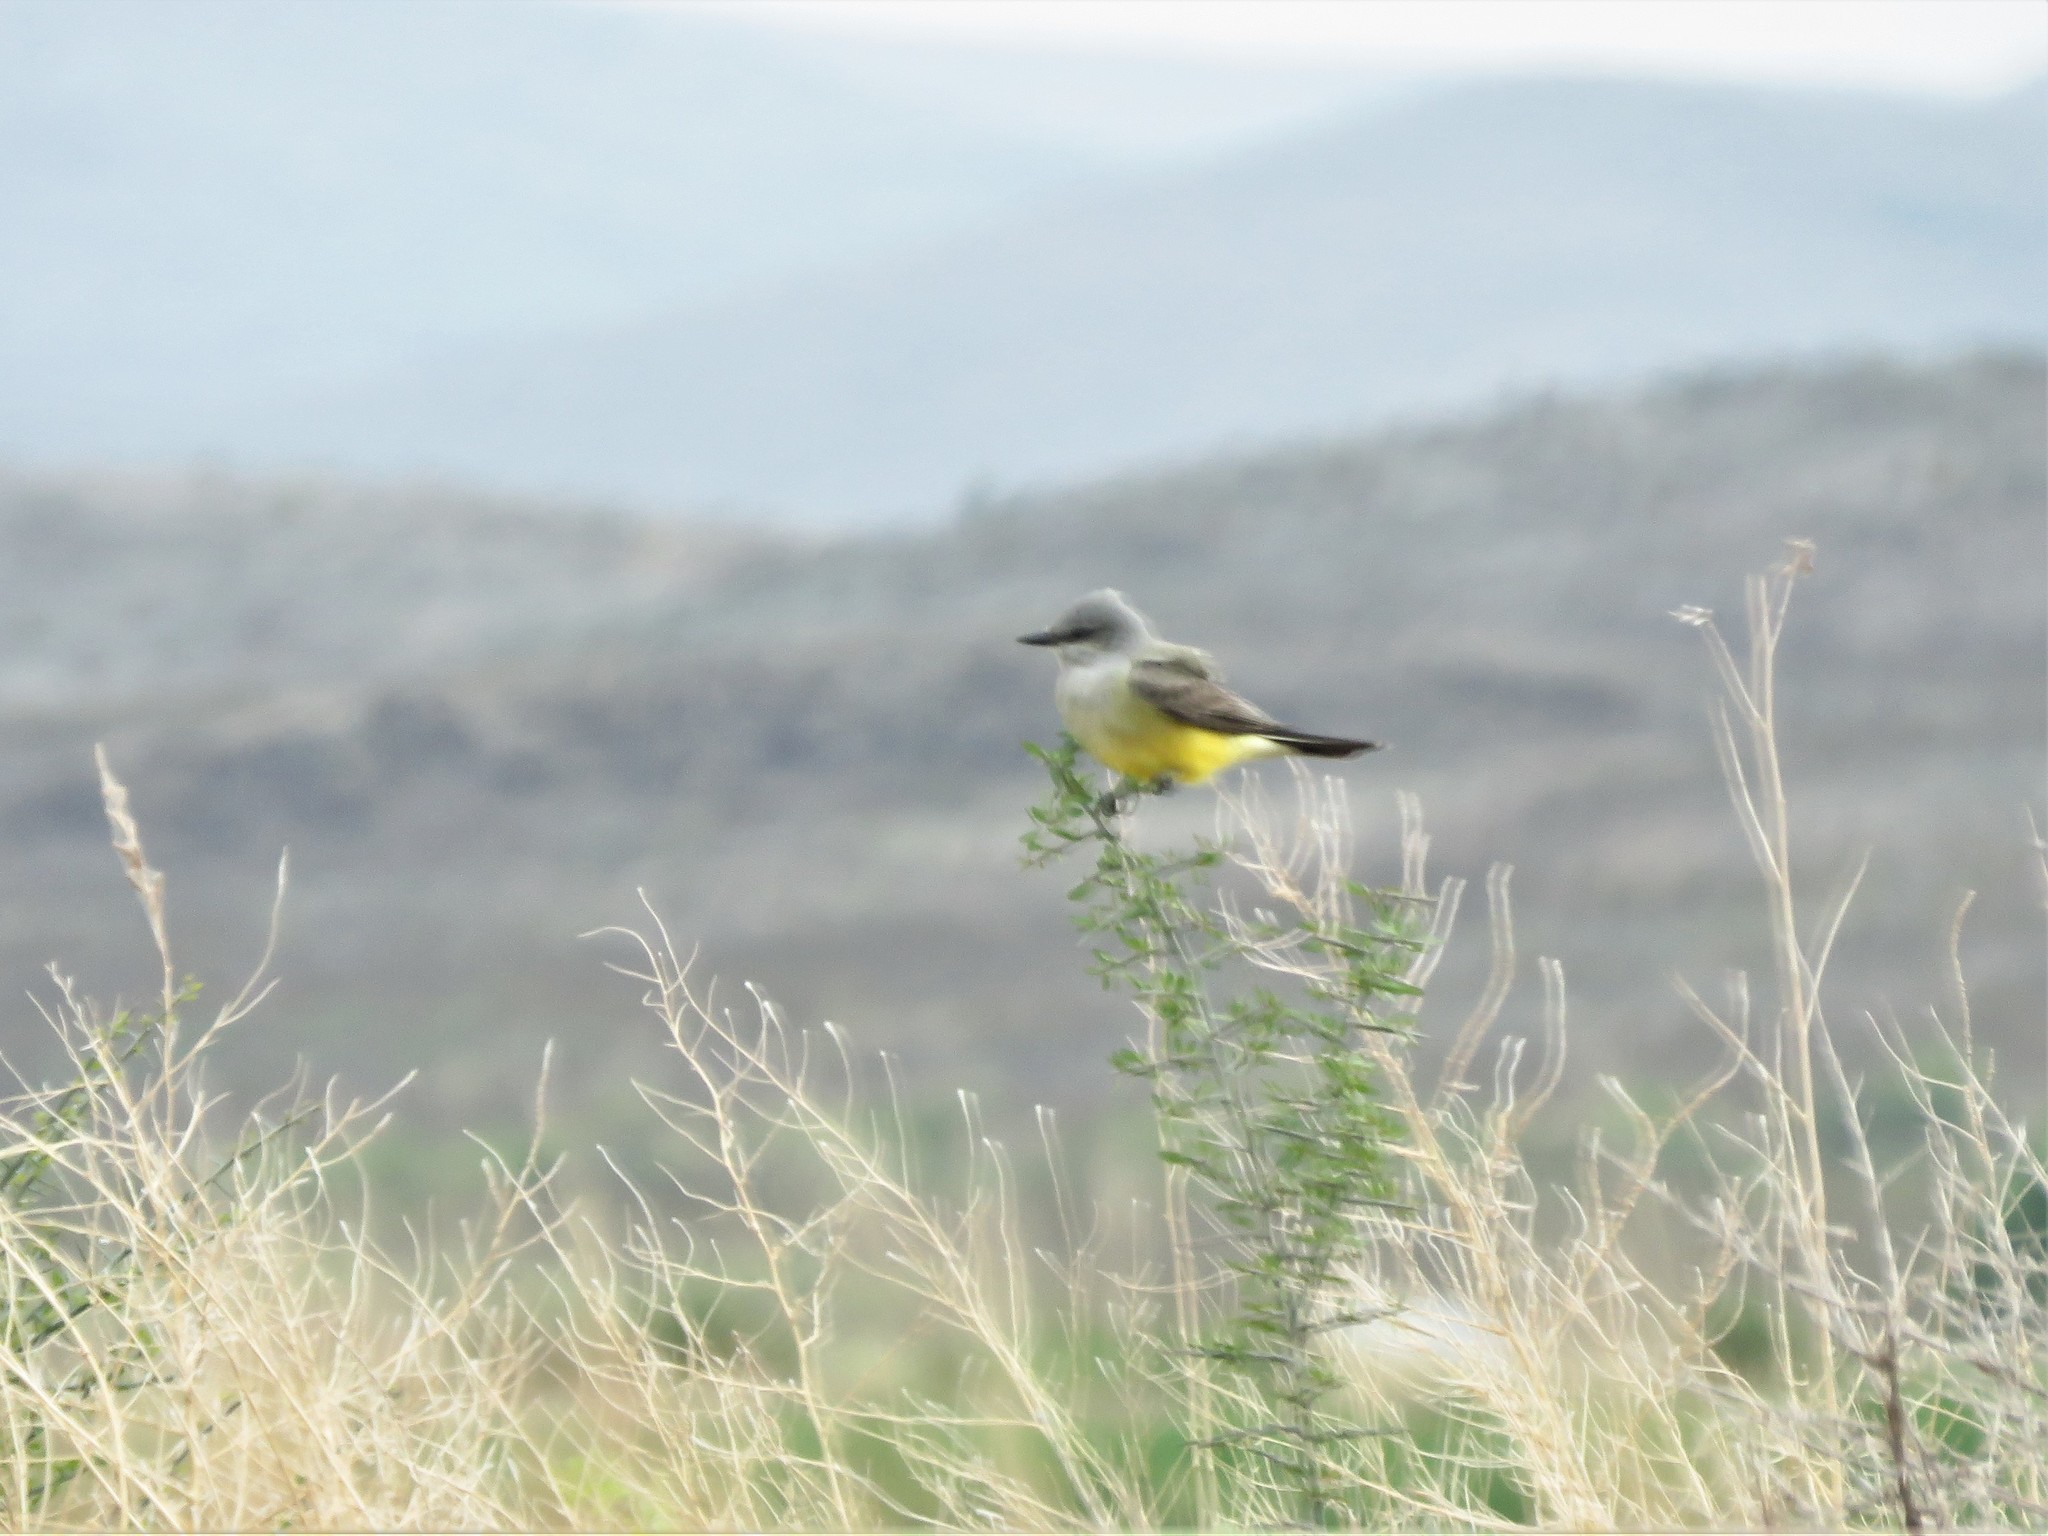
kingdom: Animalia
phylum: Chordata
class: Aves
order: Passeriformes
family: Tyrannidae
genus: Tyrannus
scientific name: Tyrannus verticalis
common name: Western kingbird
